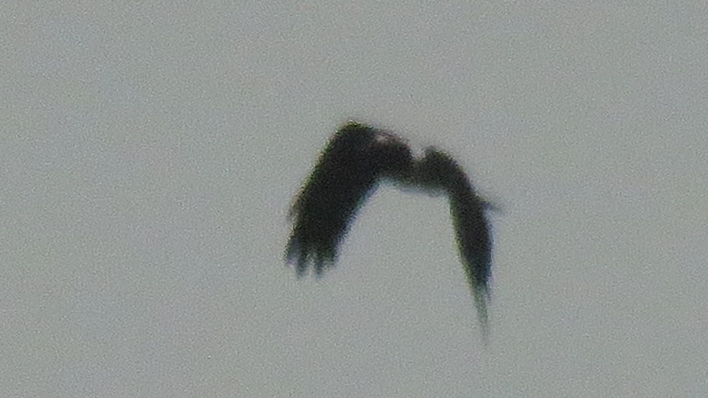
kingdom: Animalia
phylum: Chordata
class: Aves
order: Passeriformes
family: Corvidae
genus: Corvus
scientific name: Corvus albus
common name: Pied crow
